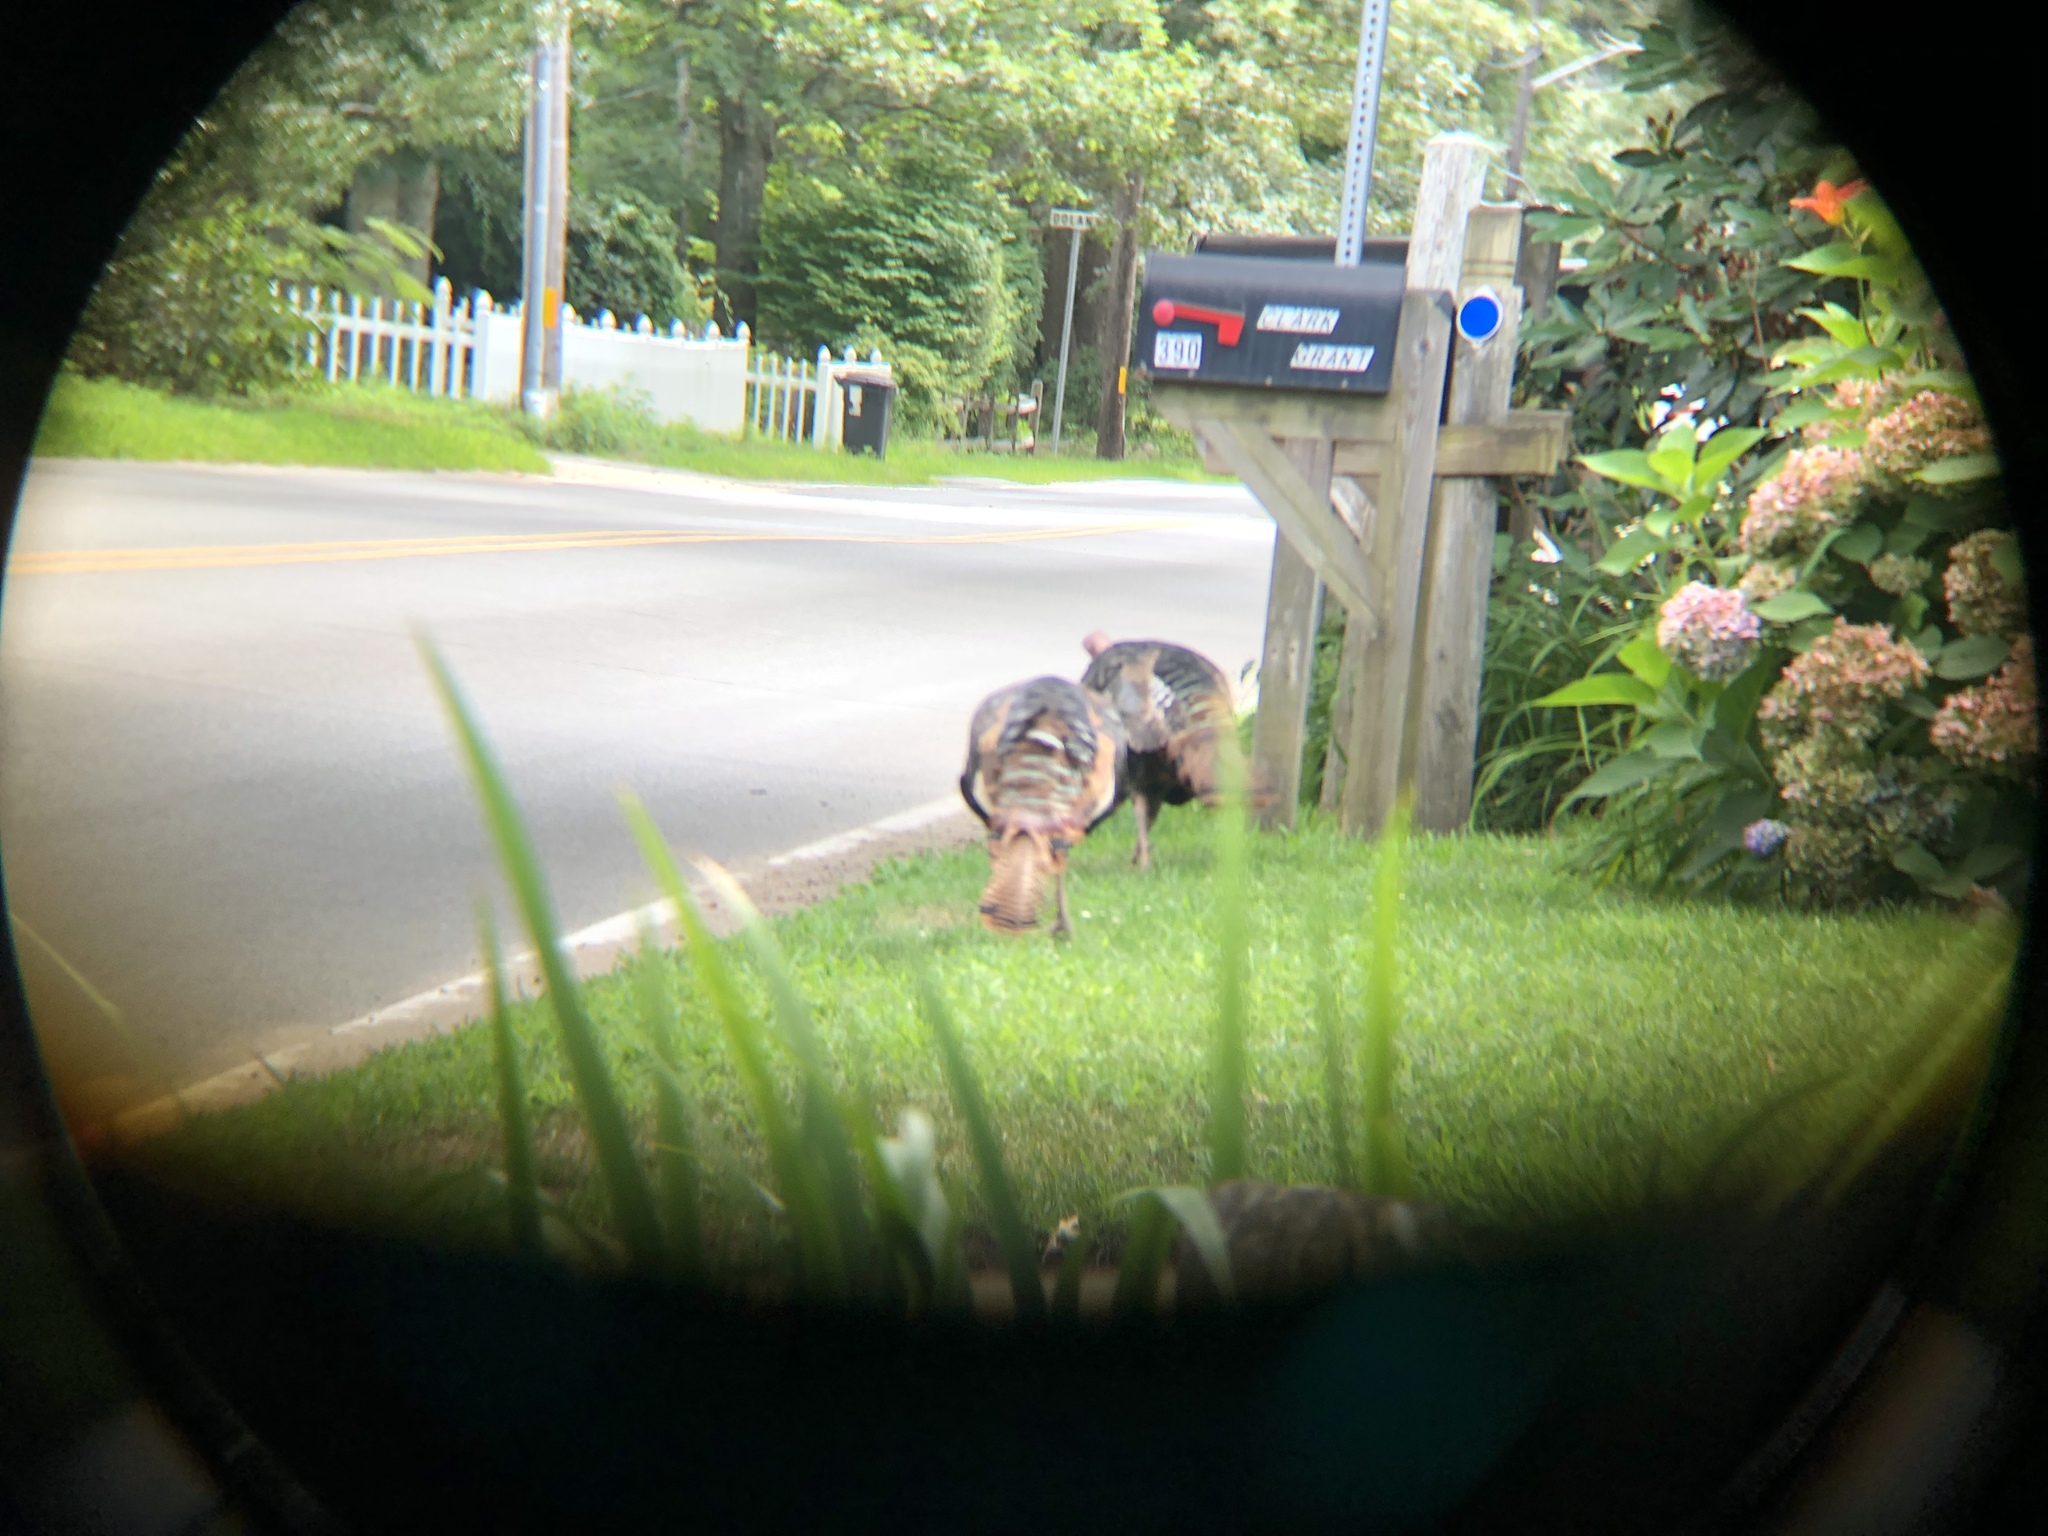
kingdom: Animalia
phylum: Chordata
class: Aves
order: Galliformes
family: Phasianidae
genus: Meleagris
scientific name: Meleagris gallopavo
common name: Wild turkey
